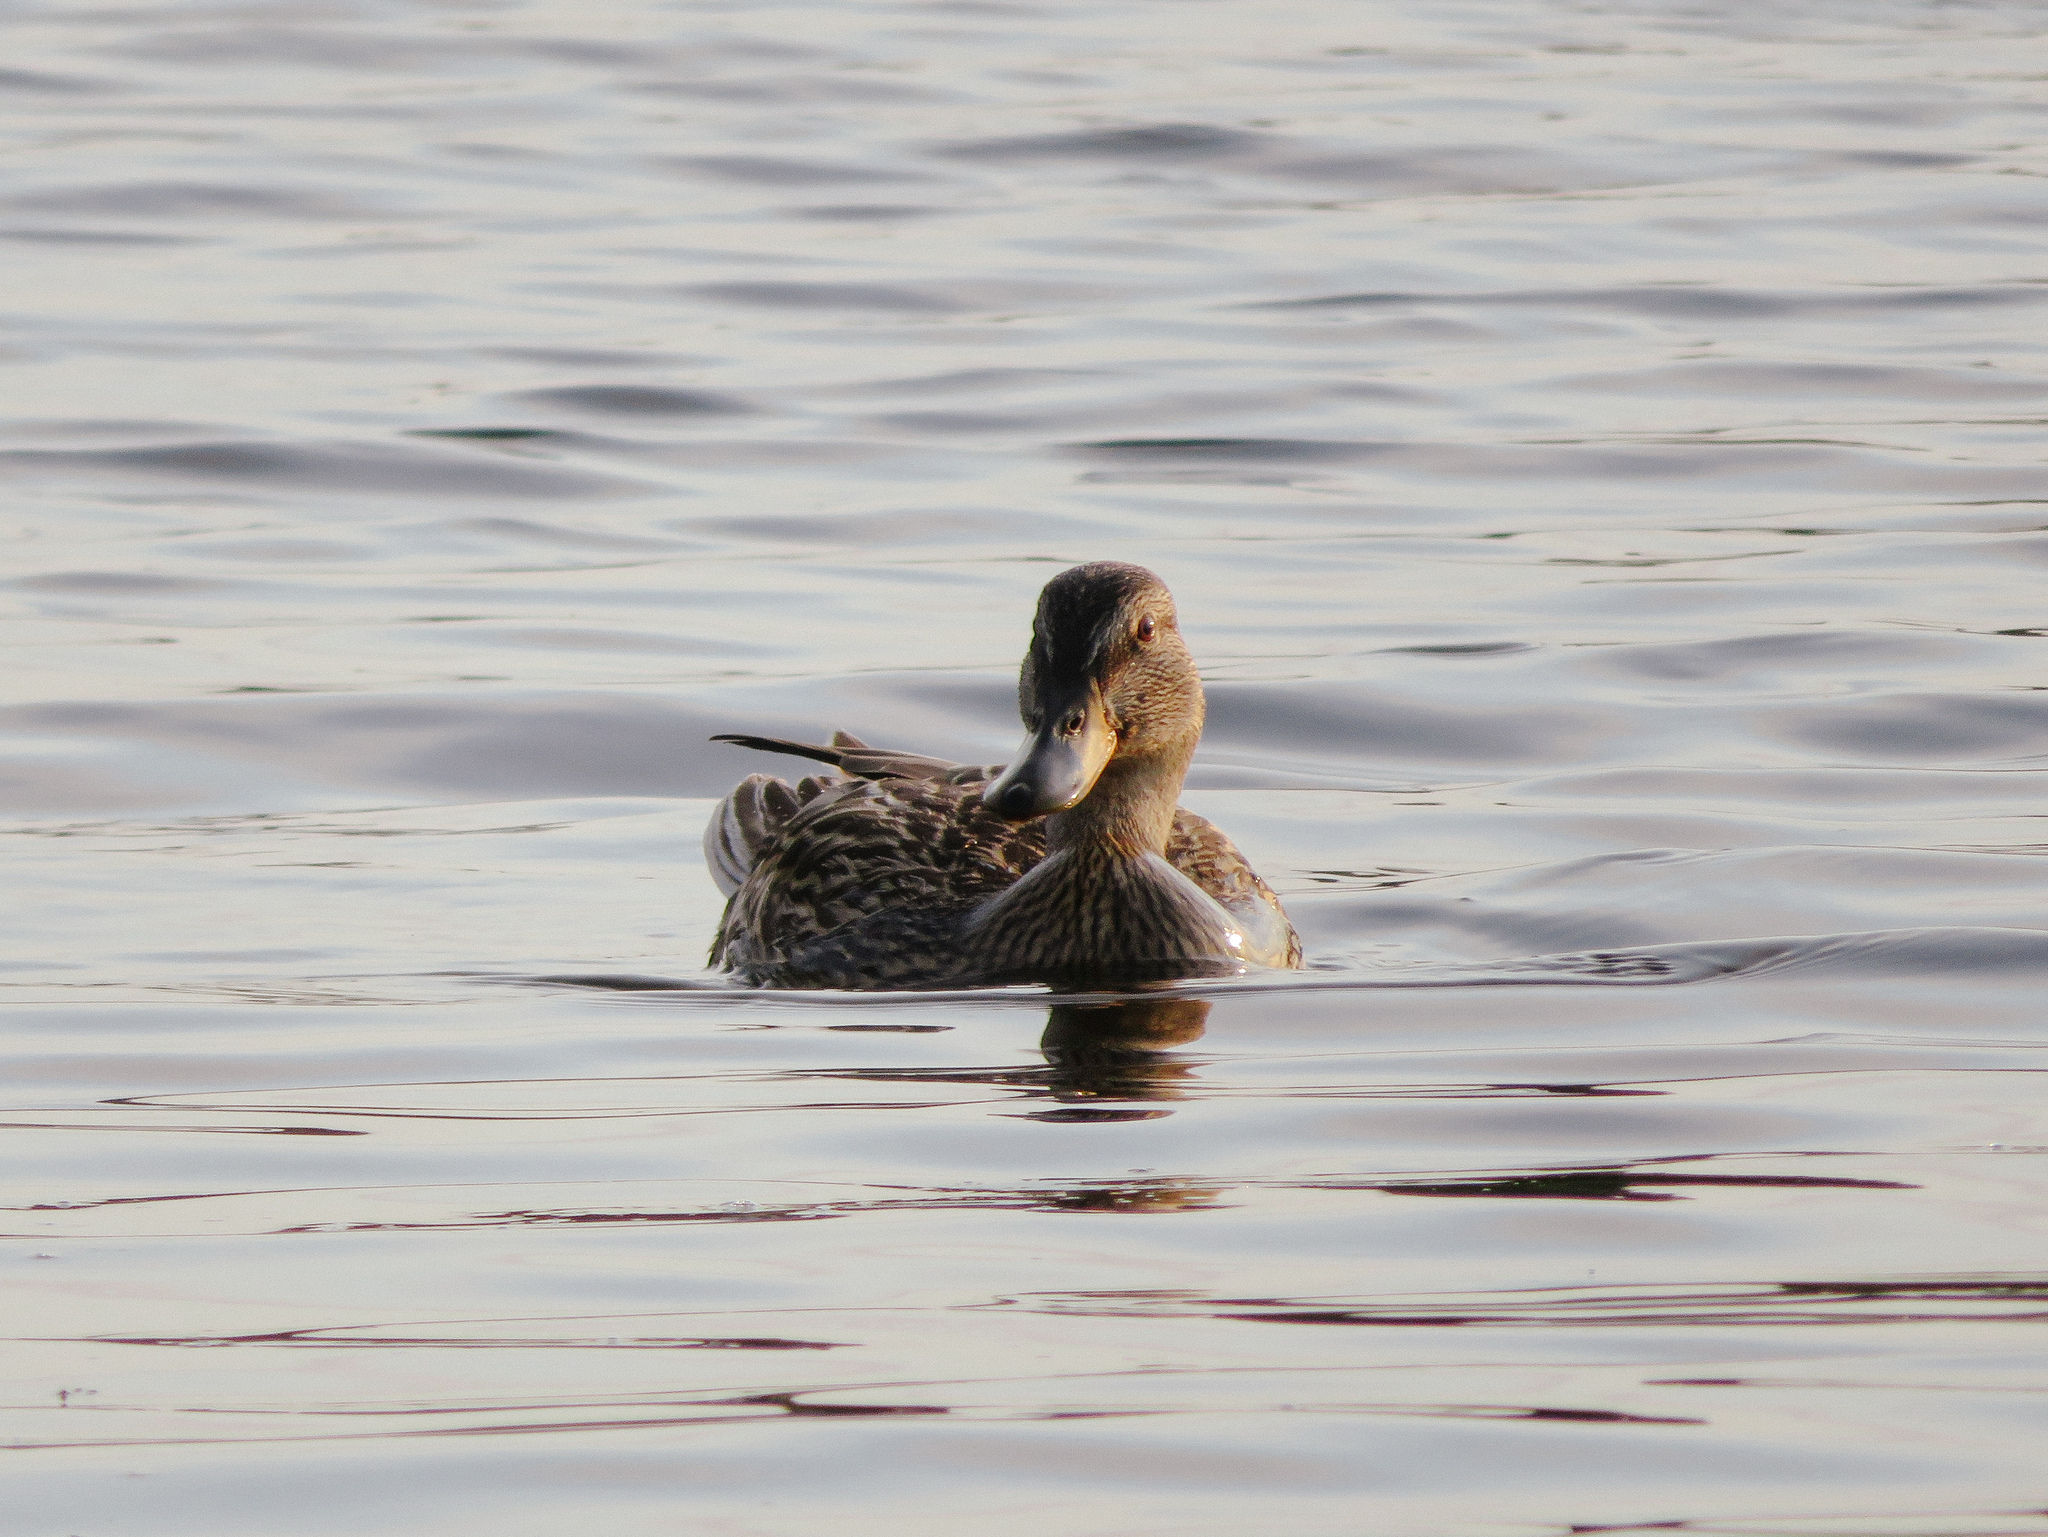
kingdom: Animalia
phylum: Chordata
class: Aves
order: Anseriformes
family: Anatidae
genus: Anas
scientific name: Anas platyrhynchos
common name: Mallard
